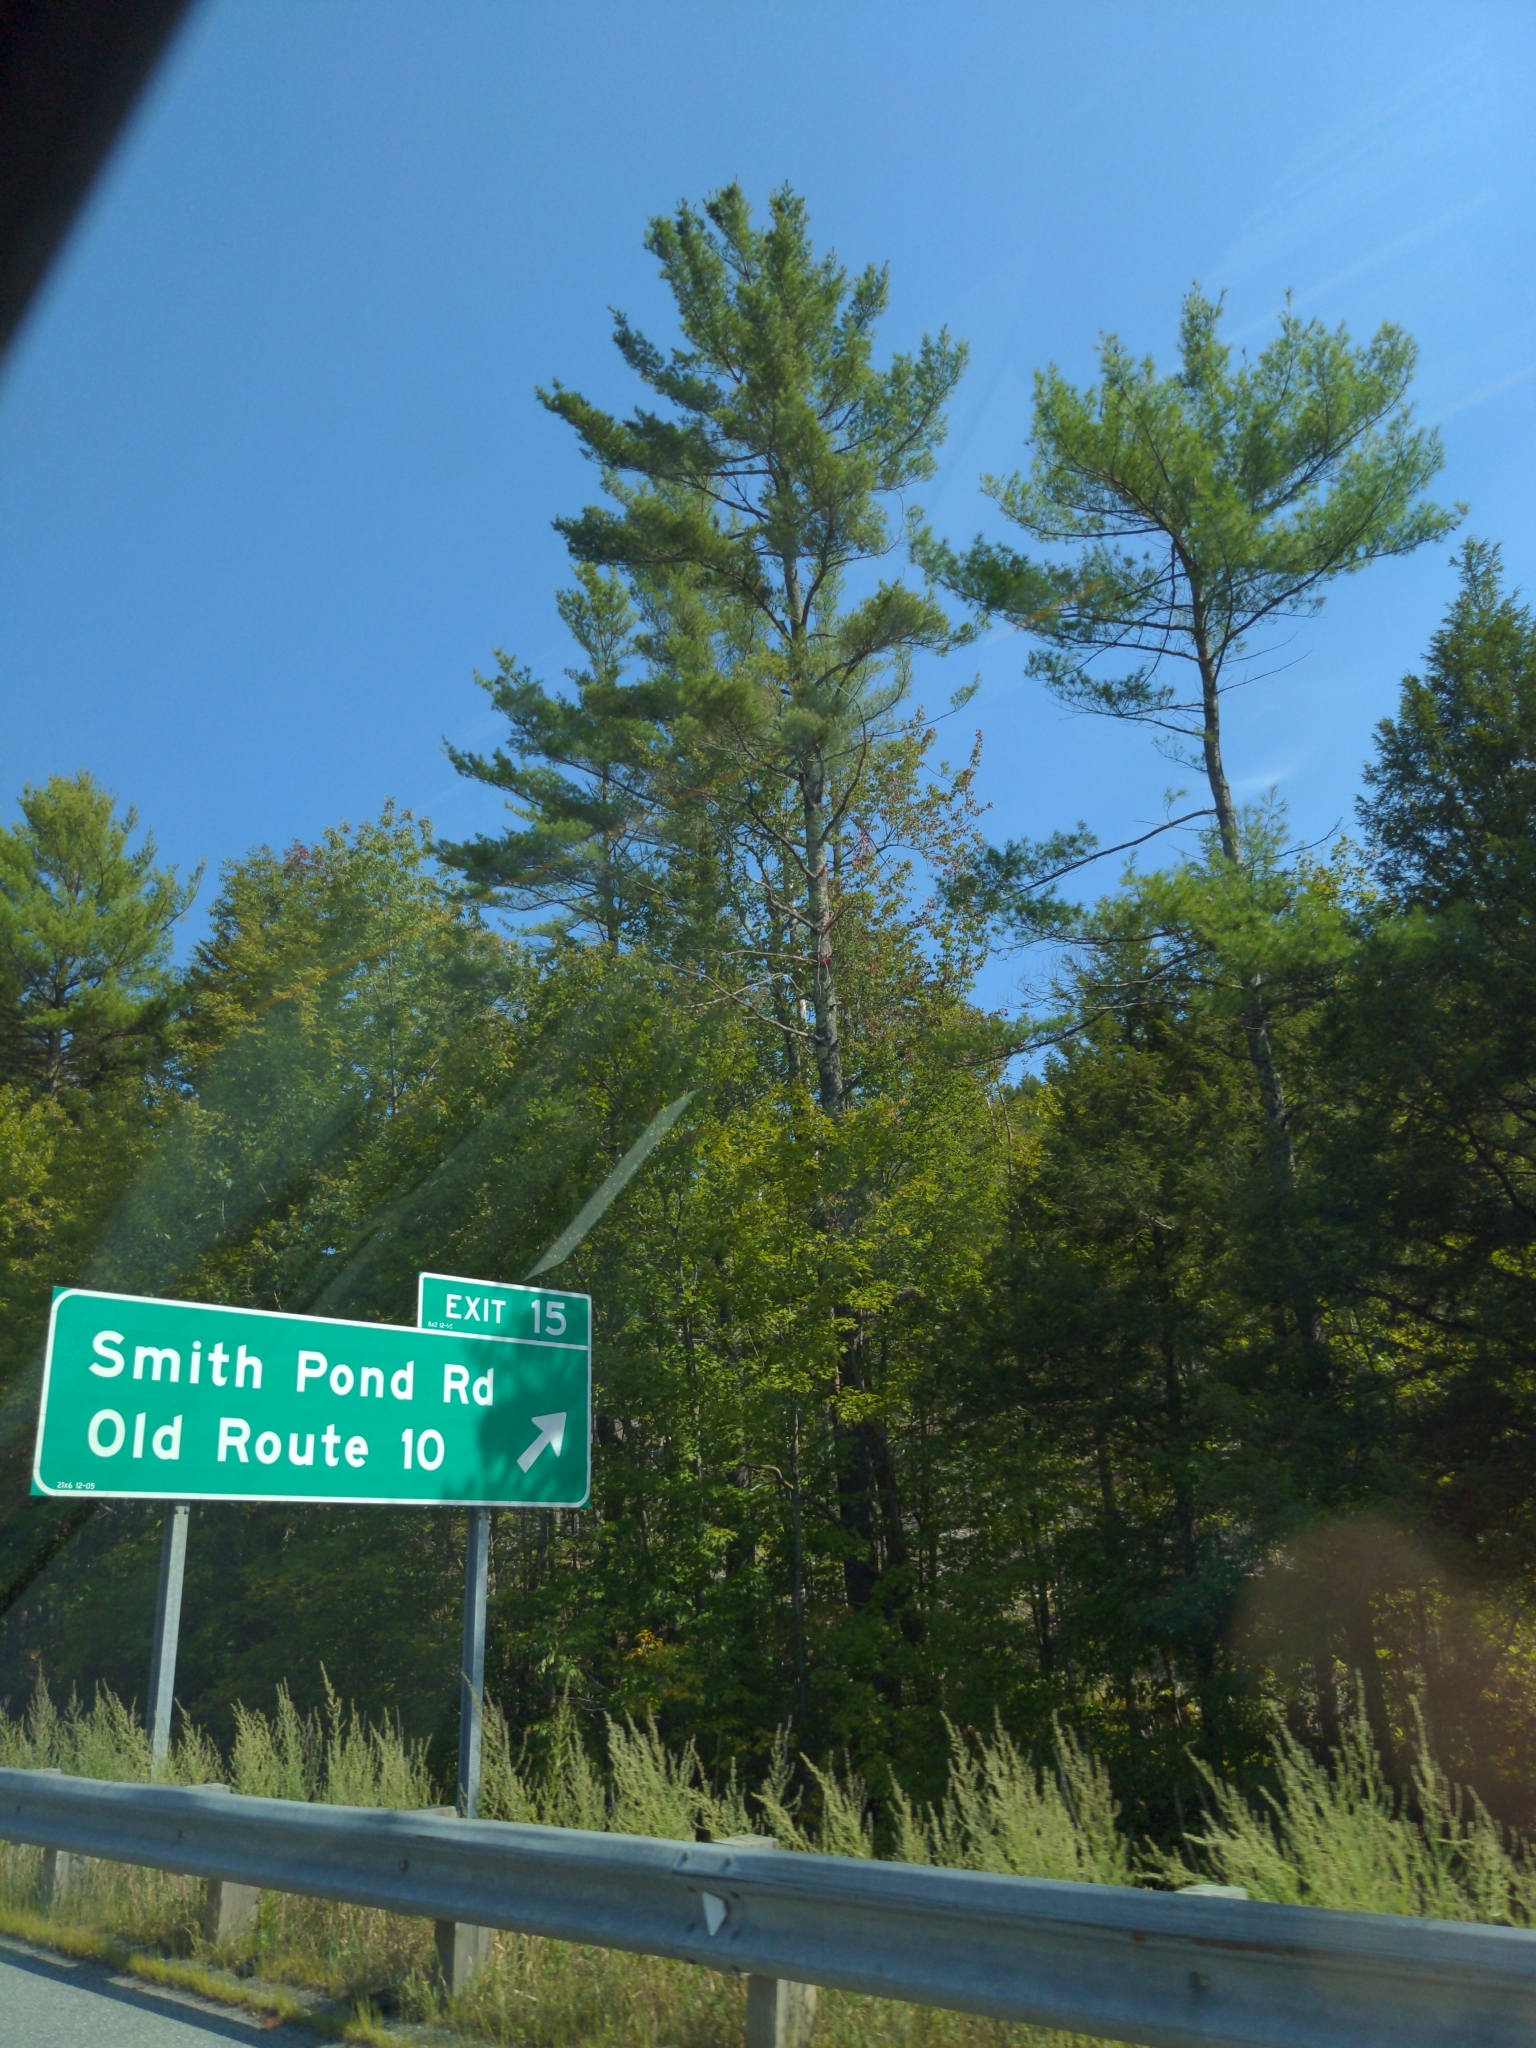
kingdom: Plantae
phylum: Tracheophyta
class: Pinopsida
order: Pinales
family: Pinaceae
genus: Pinus
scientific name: Pinus strobus
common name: Weymouth pine
